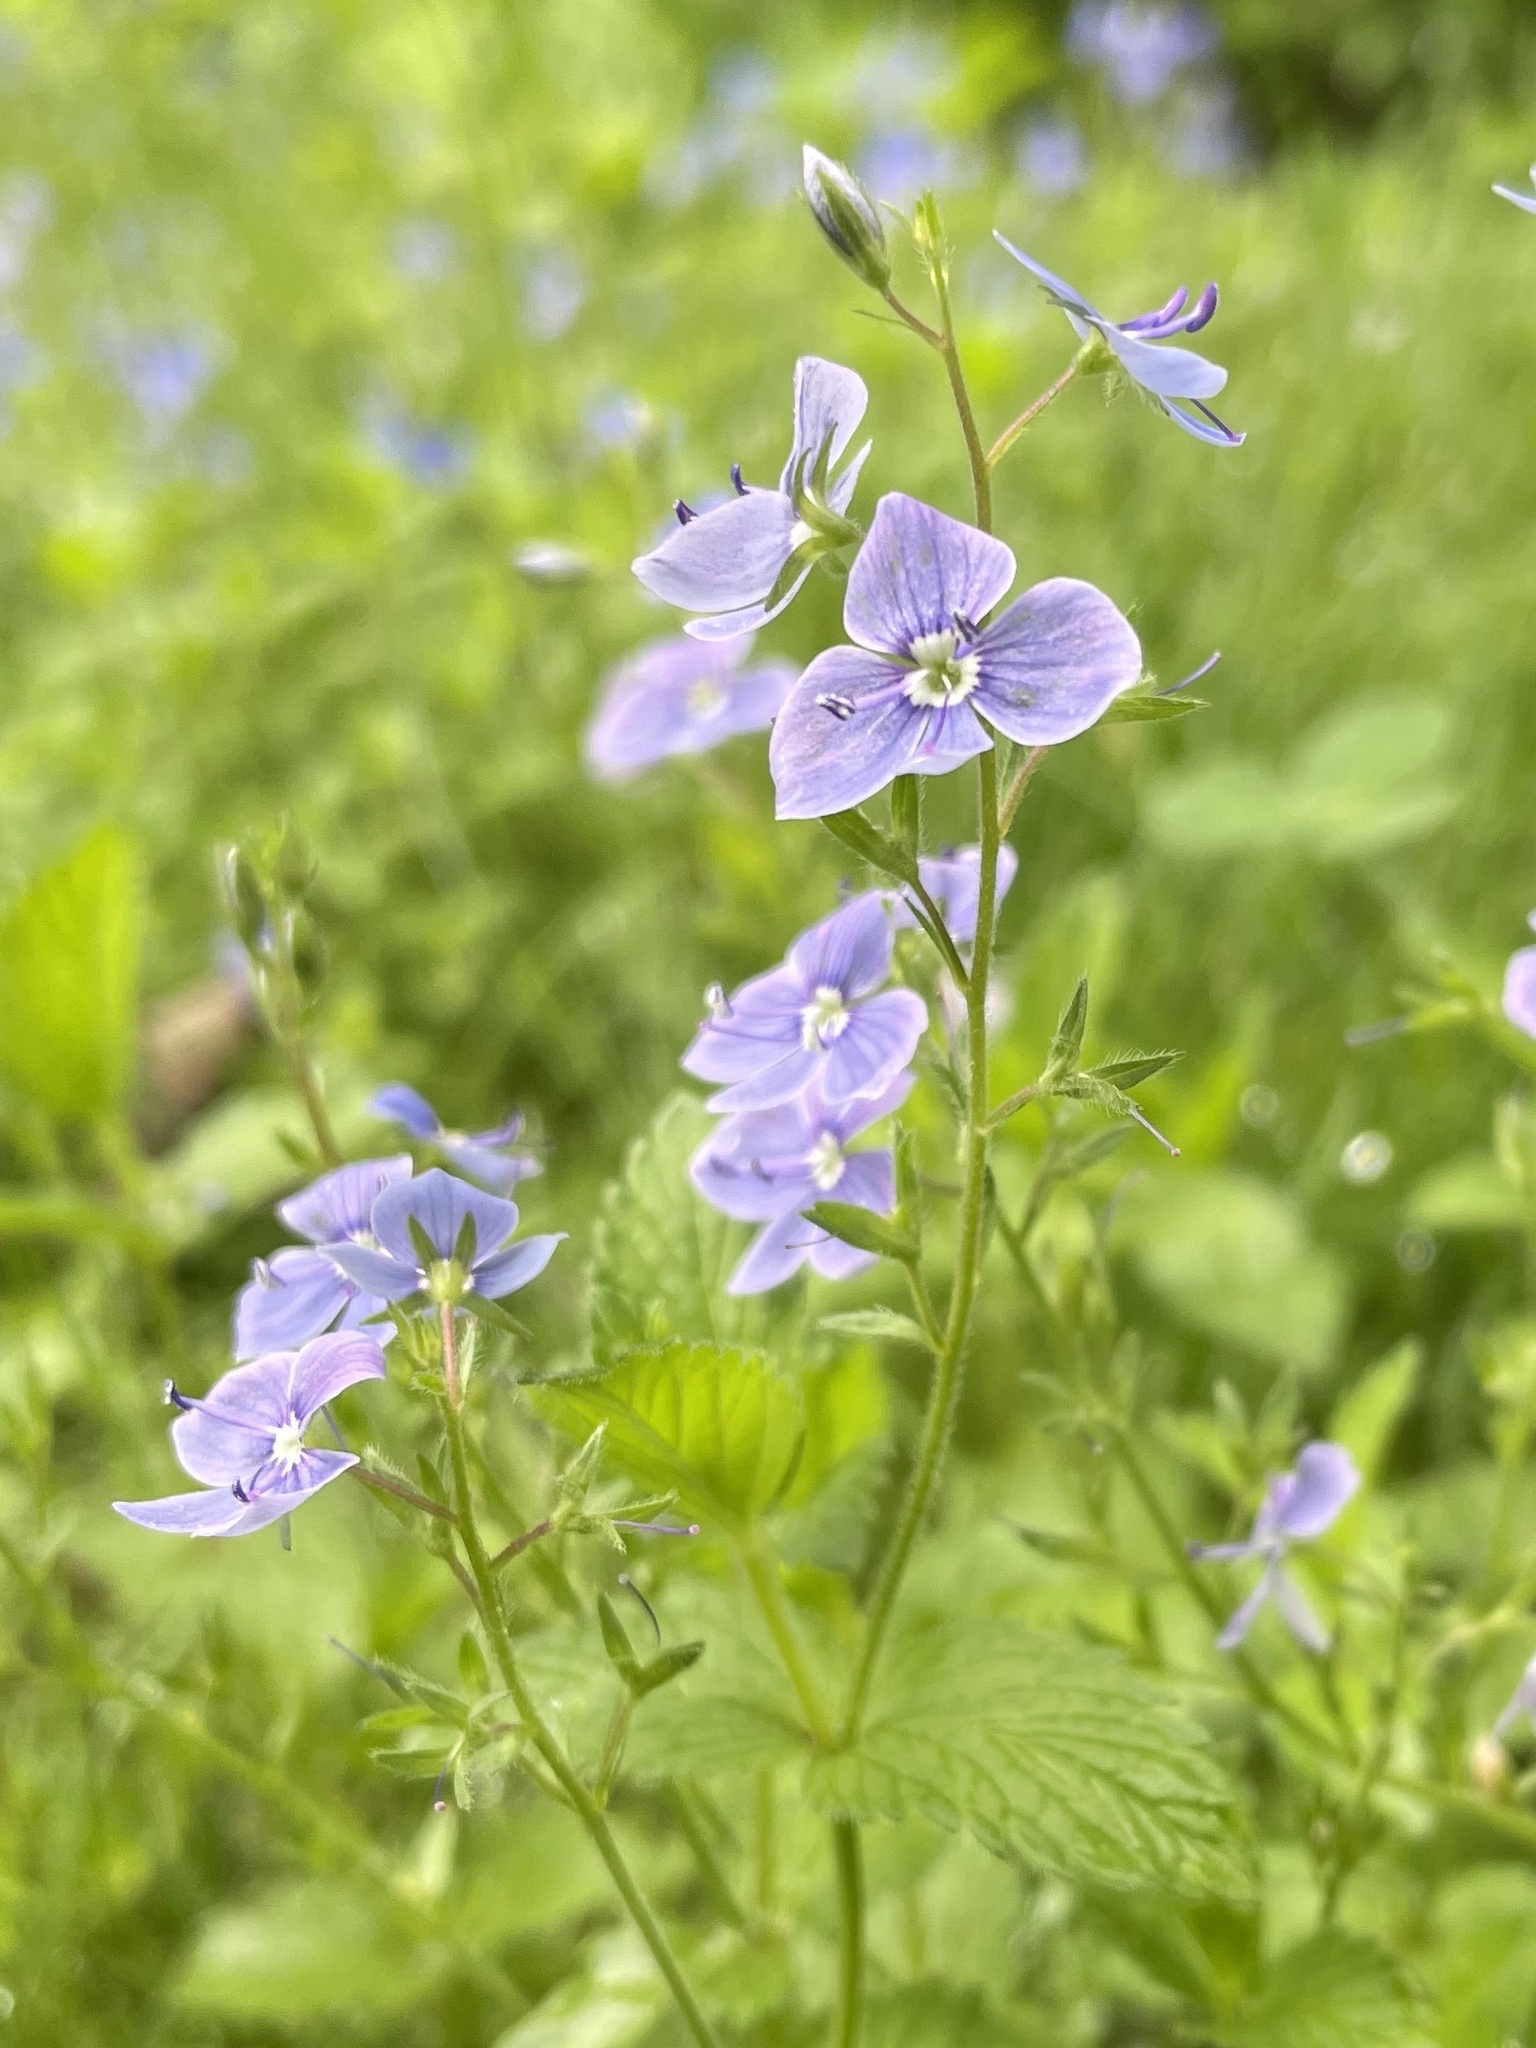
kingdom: Plantae
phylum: Tracheophyta
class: Magnoliopsida
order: Lamiales
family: Plantaginaceae
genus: Veronica
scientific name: Veronica chamaedrys
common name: Germander speedwell
